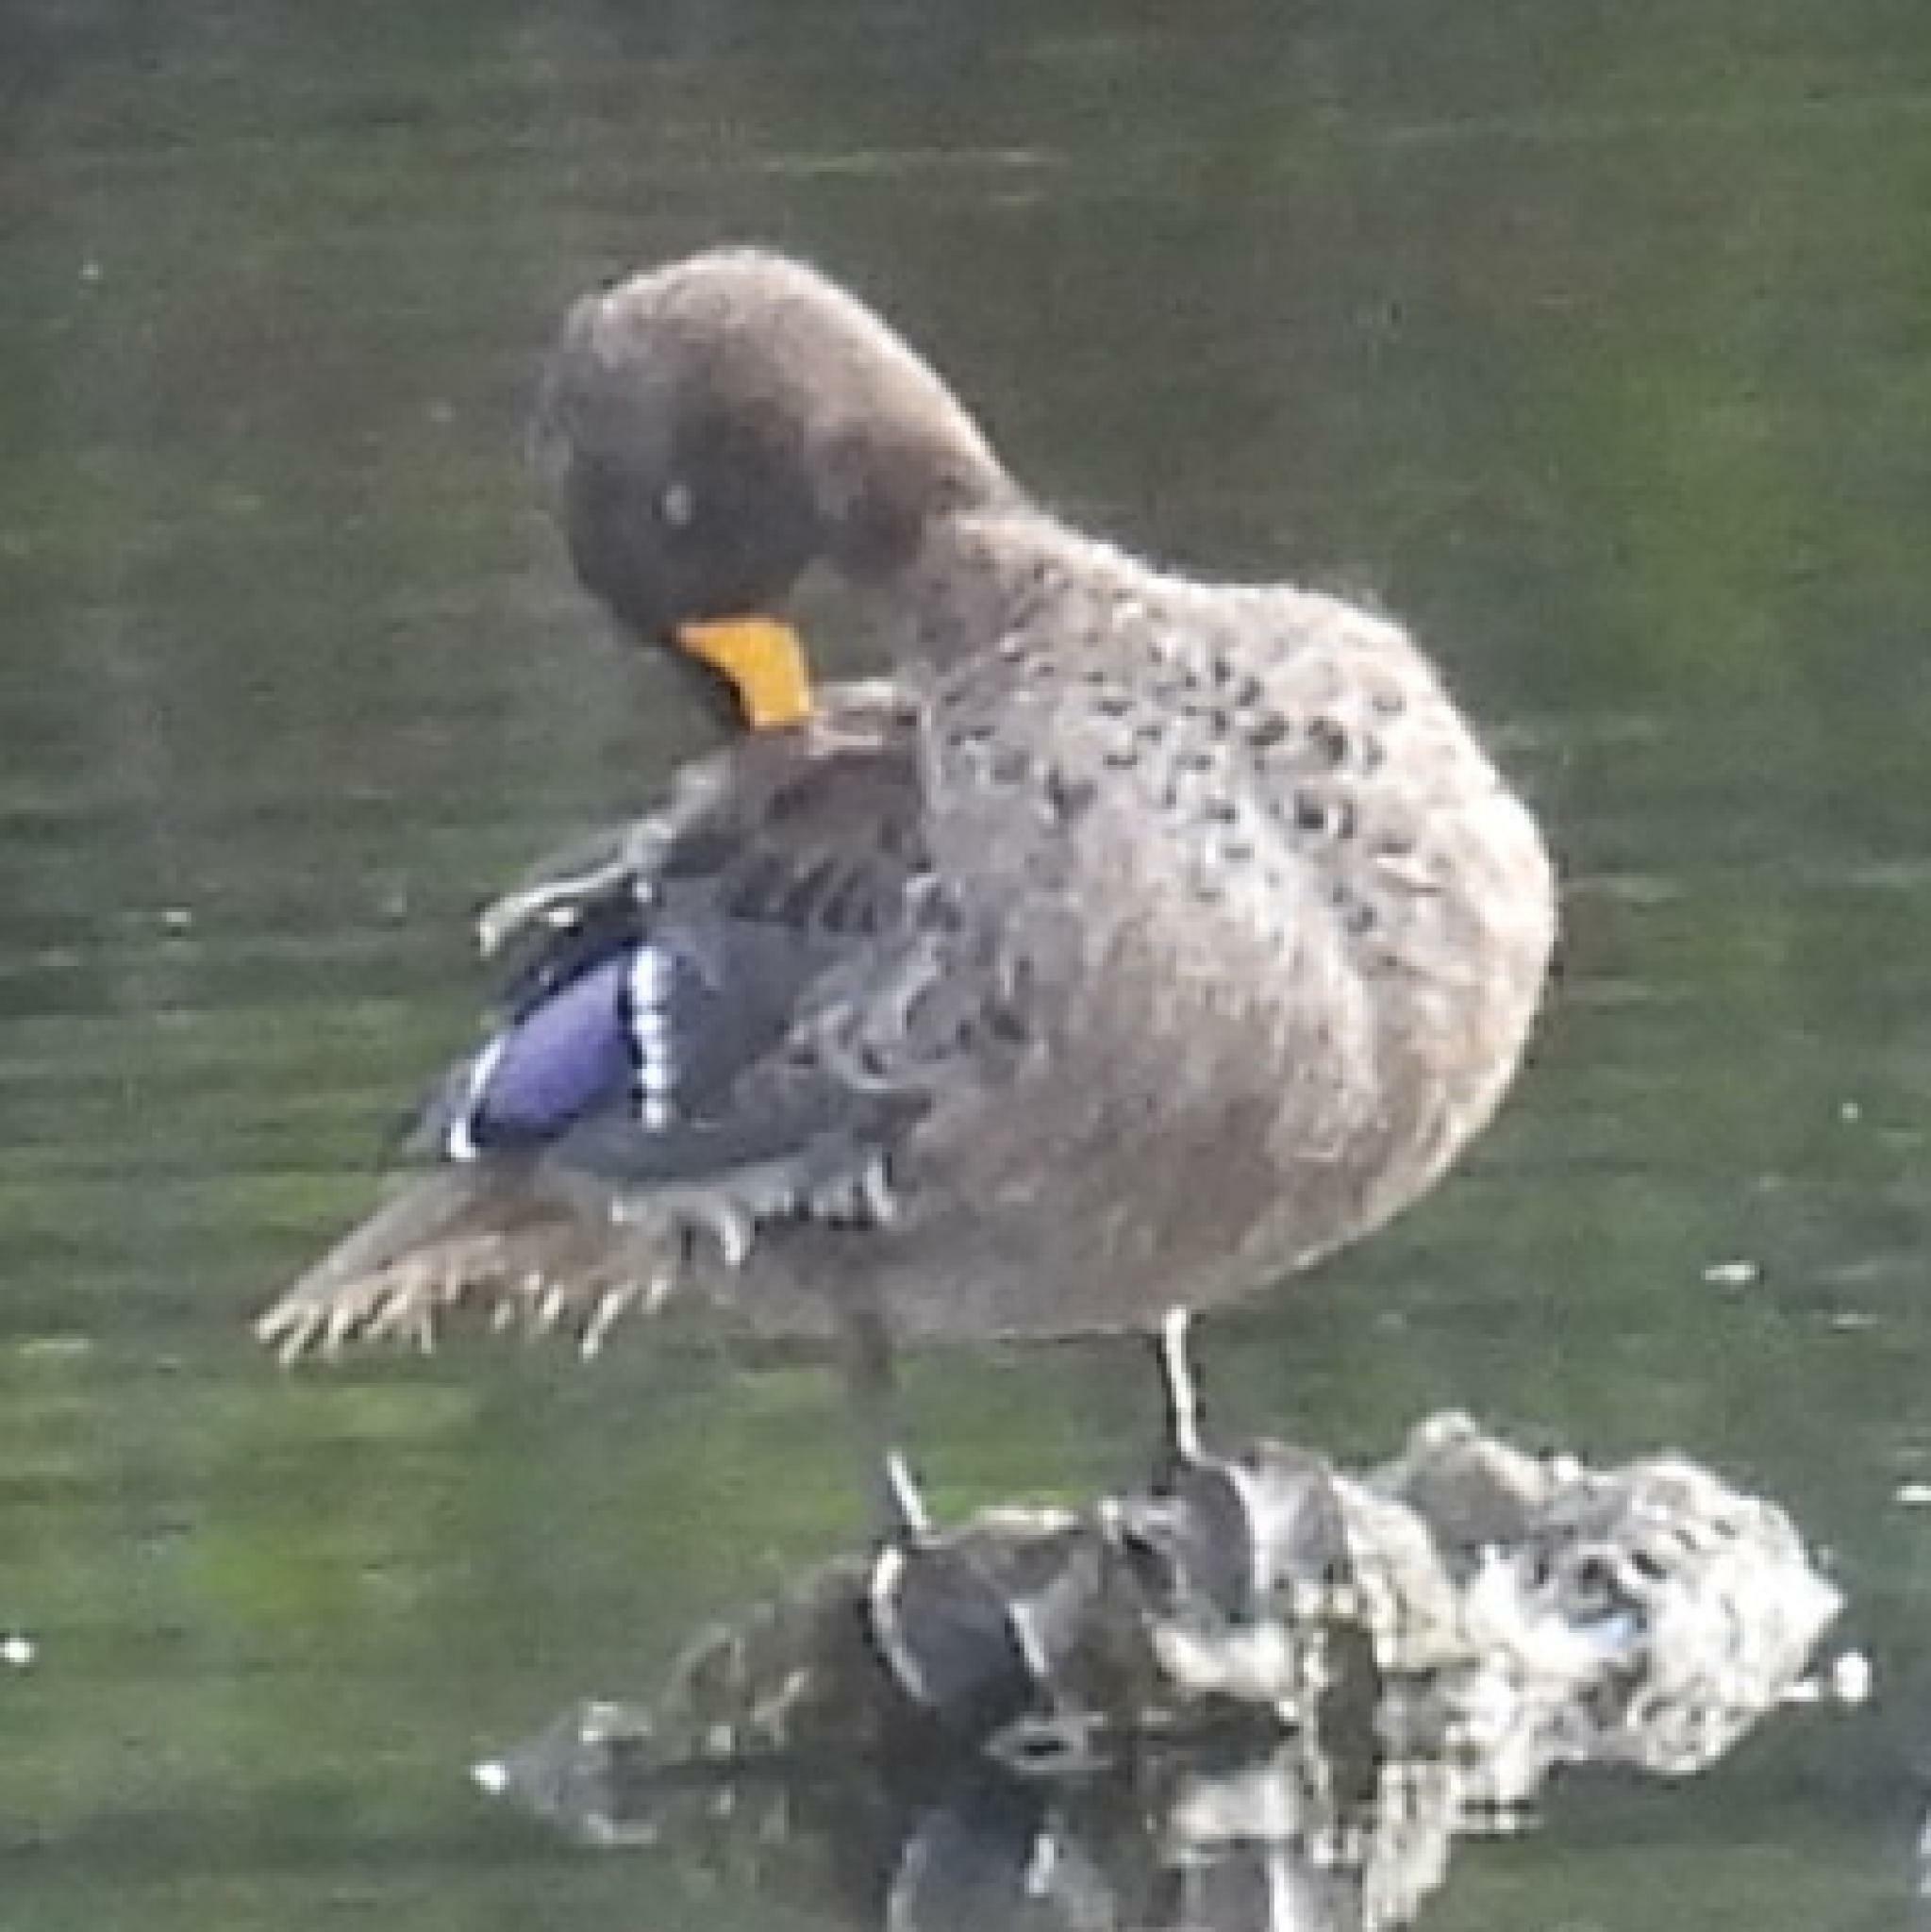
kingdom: Animalia
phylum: Chordata
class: Aves
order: Anseriformes
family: Anatidae
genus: Anas
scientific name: Anas undulata
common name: Yellow-billed duck
